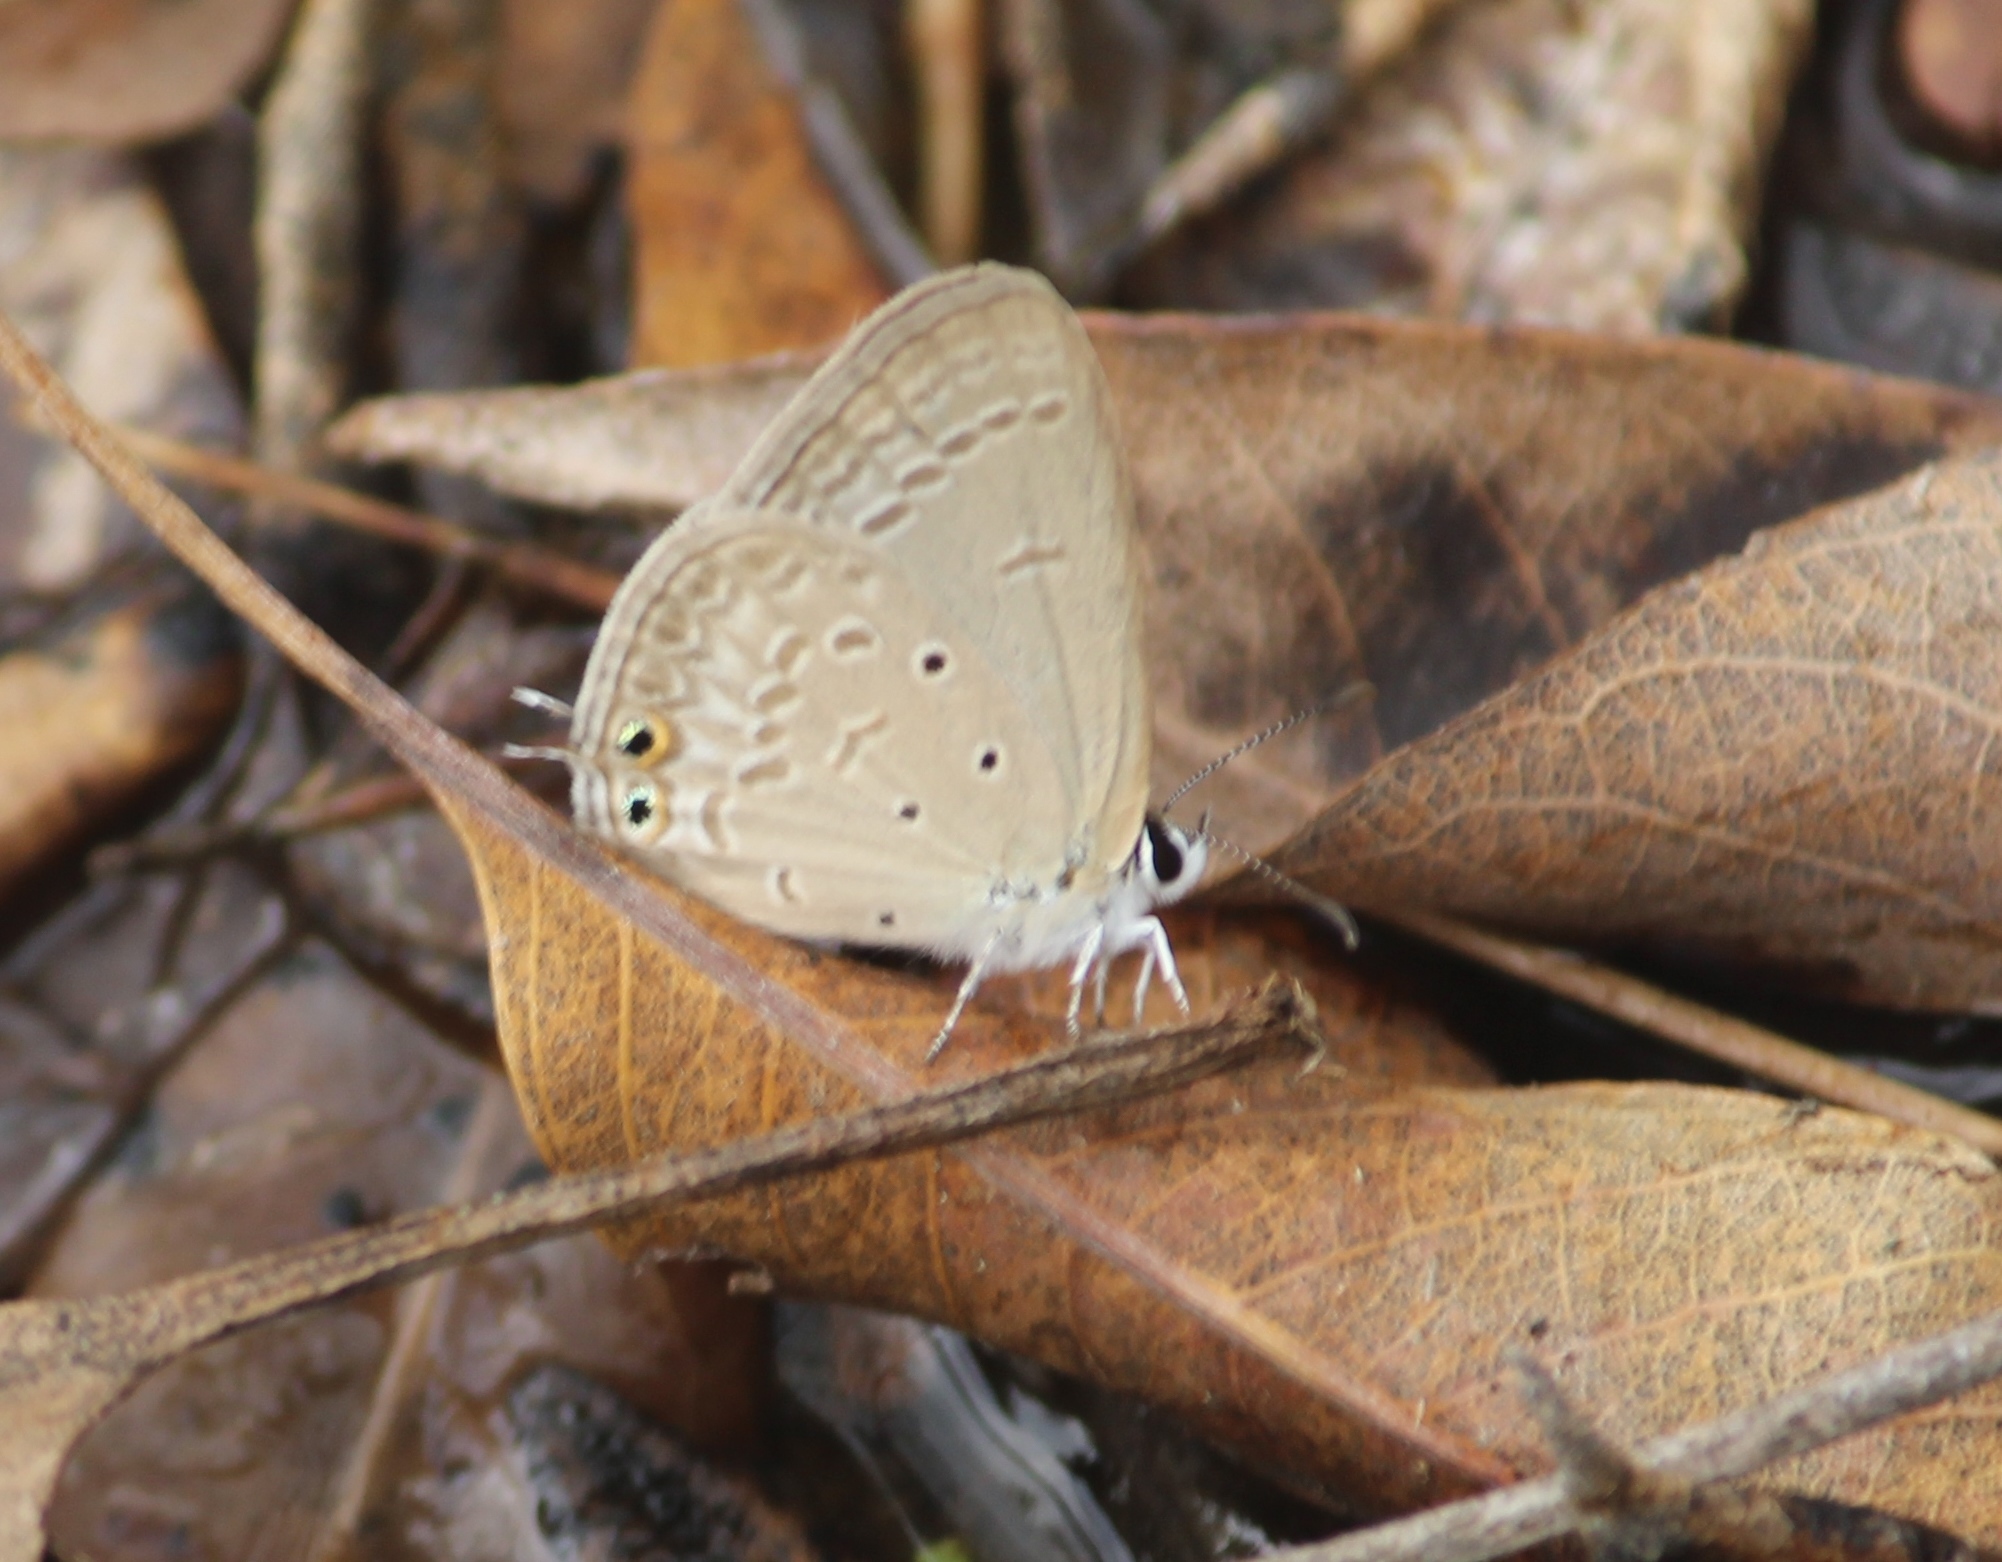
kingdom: Animalia
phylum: Arthropoda
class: Insecta
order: Lepidoptera
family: Lycaenidae
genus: Euchrysops
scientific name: Euchrysops cnejus
